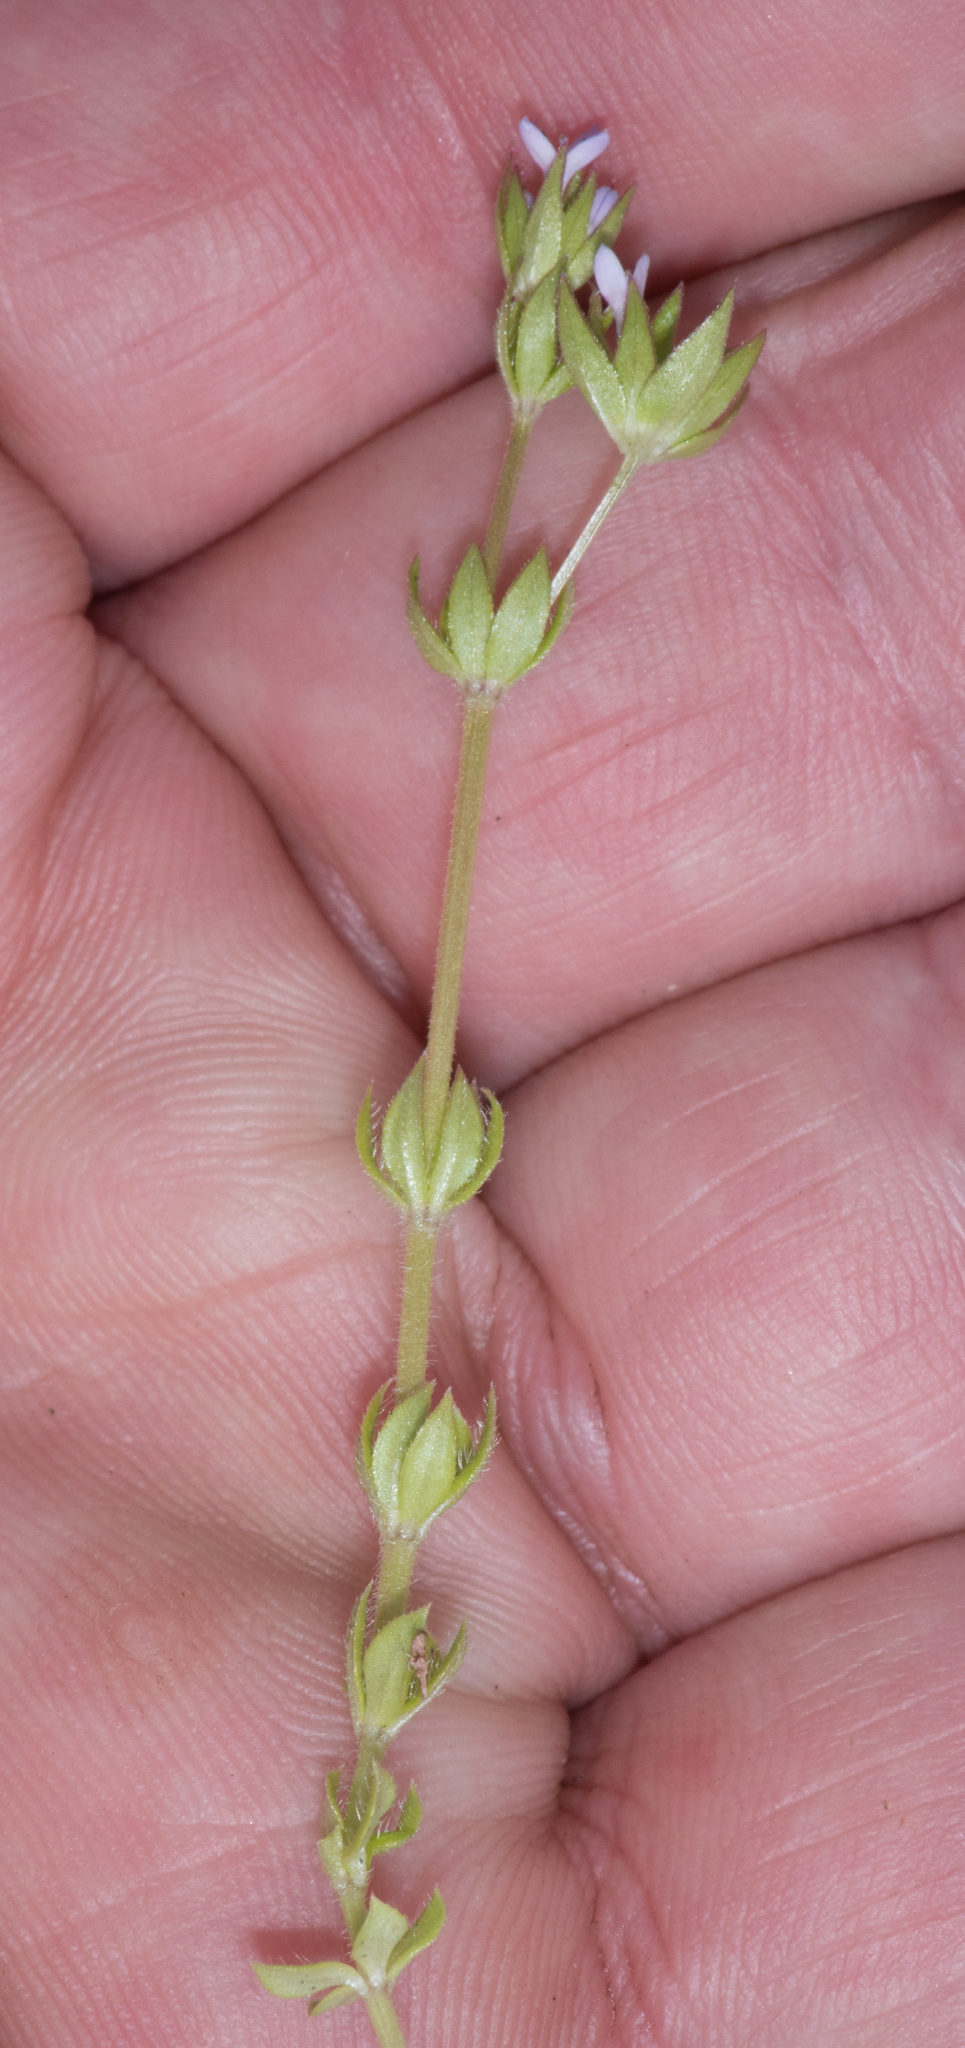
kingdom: Plantae
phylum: Tracheophyta
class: Magnoliopsida
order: Gentianales
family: Rubiaceae
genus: Sherardia
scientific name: Sherardia arvensis
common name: Field madder
